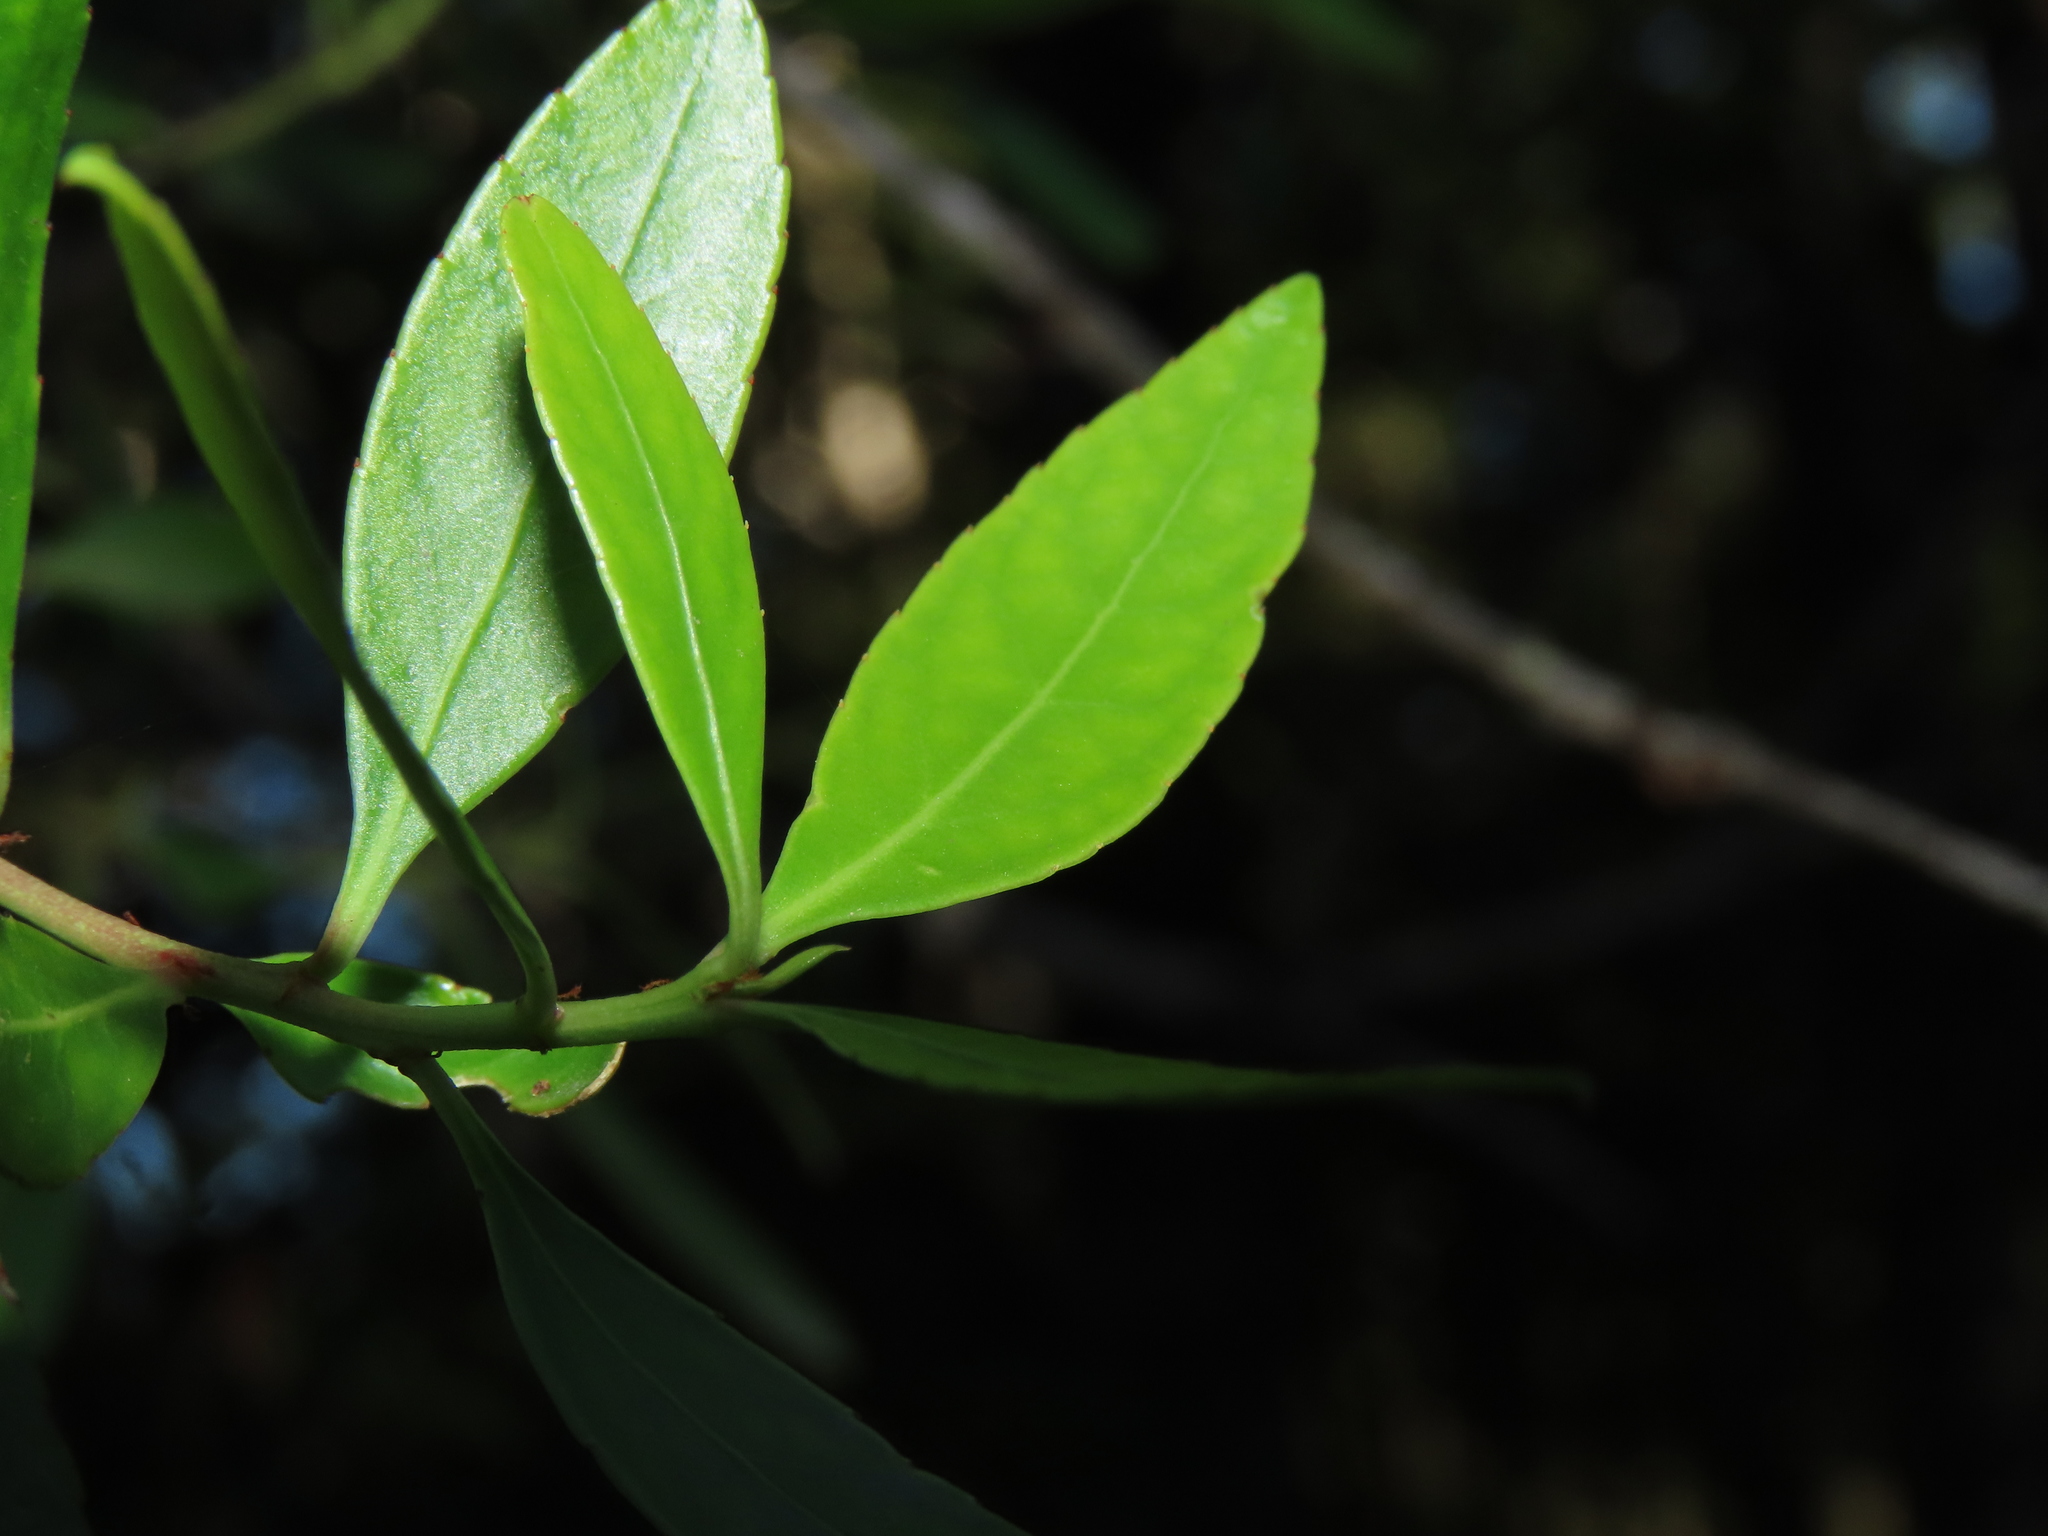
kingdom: Plantae
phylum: Tracheophyta
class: Magnoliopsida
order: Celastrales
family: Celastraceae
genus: Maytenus
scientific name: Maytenus boaria
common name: Mayten
